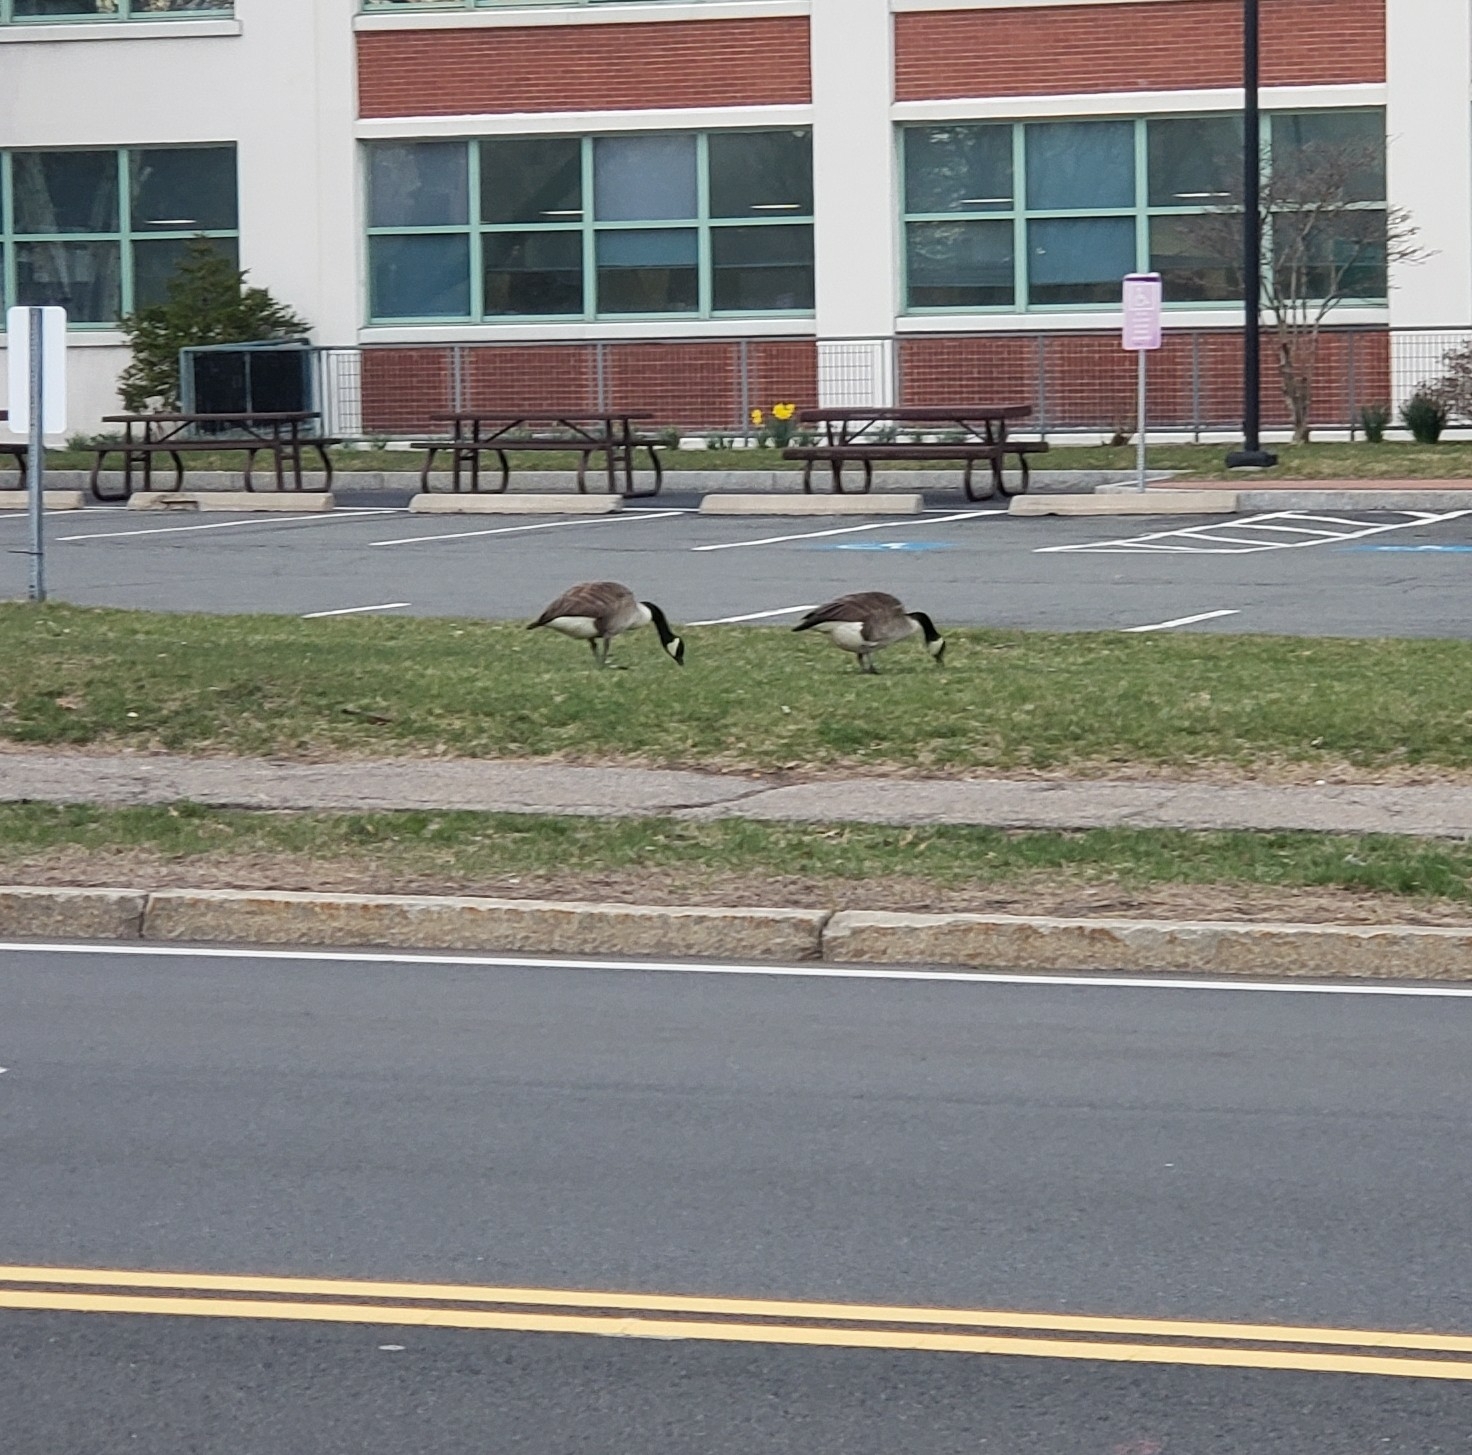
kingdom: Animalia
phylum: Chordata
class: Aves
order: Anseriformes
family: Anatidae
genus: Branta
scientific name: Branta canadensis
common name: Canada goose
